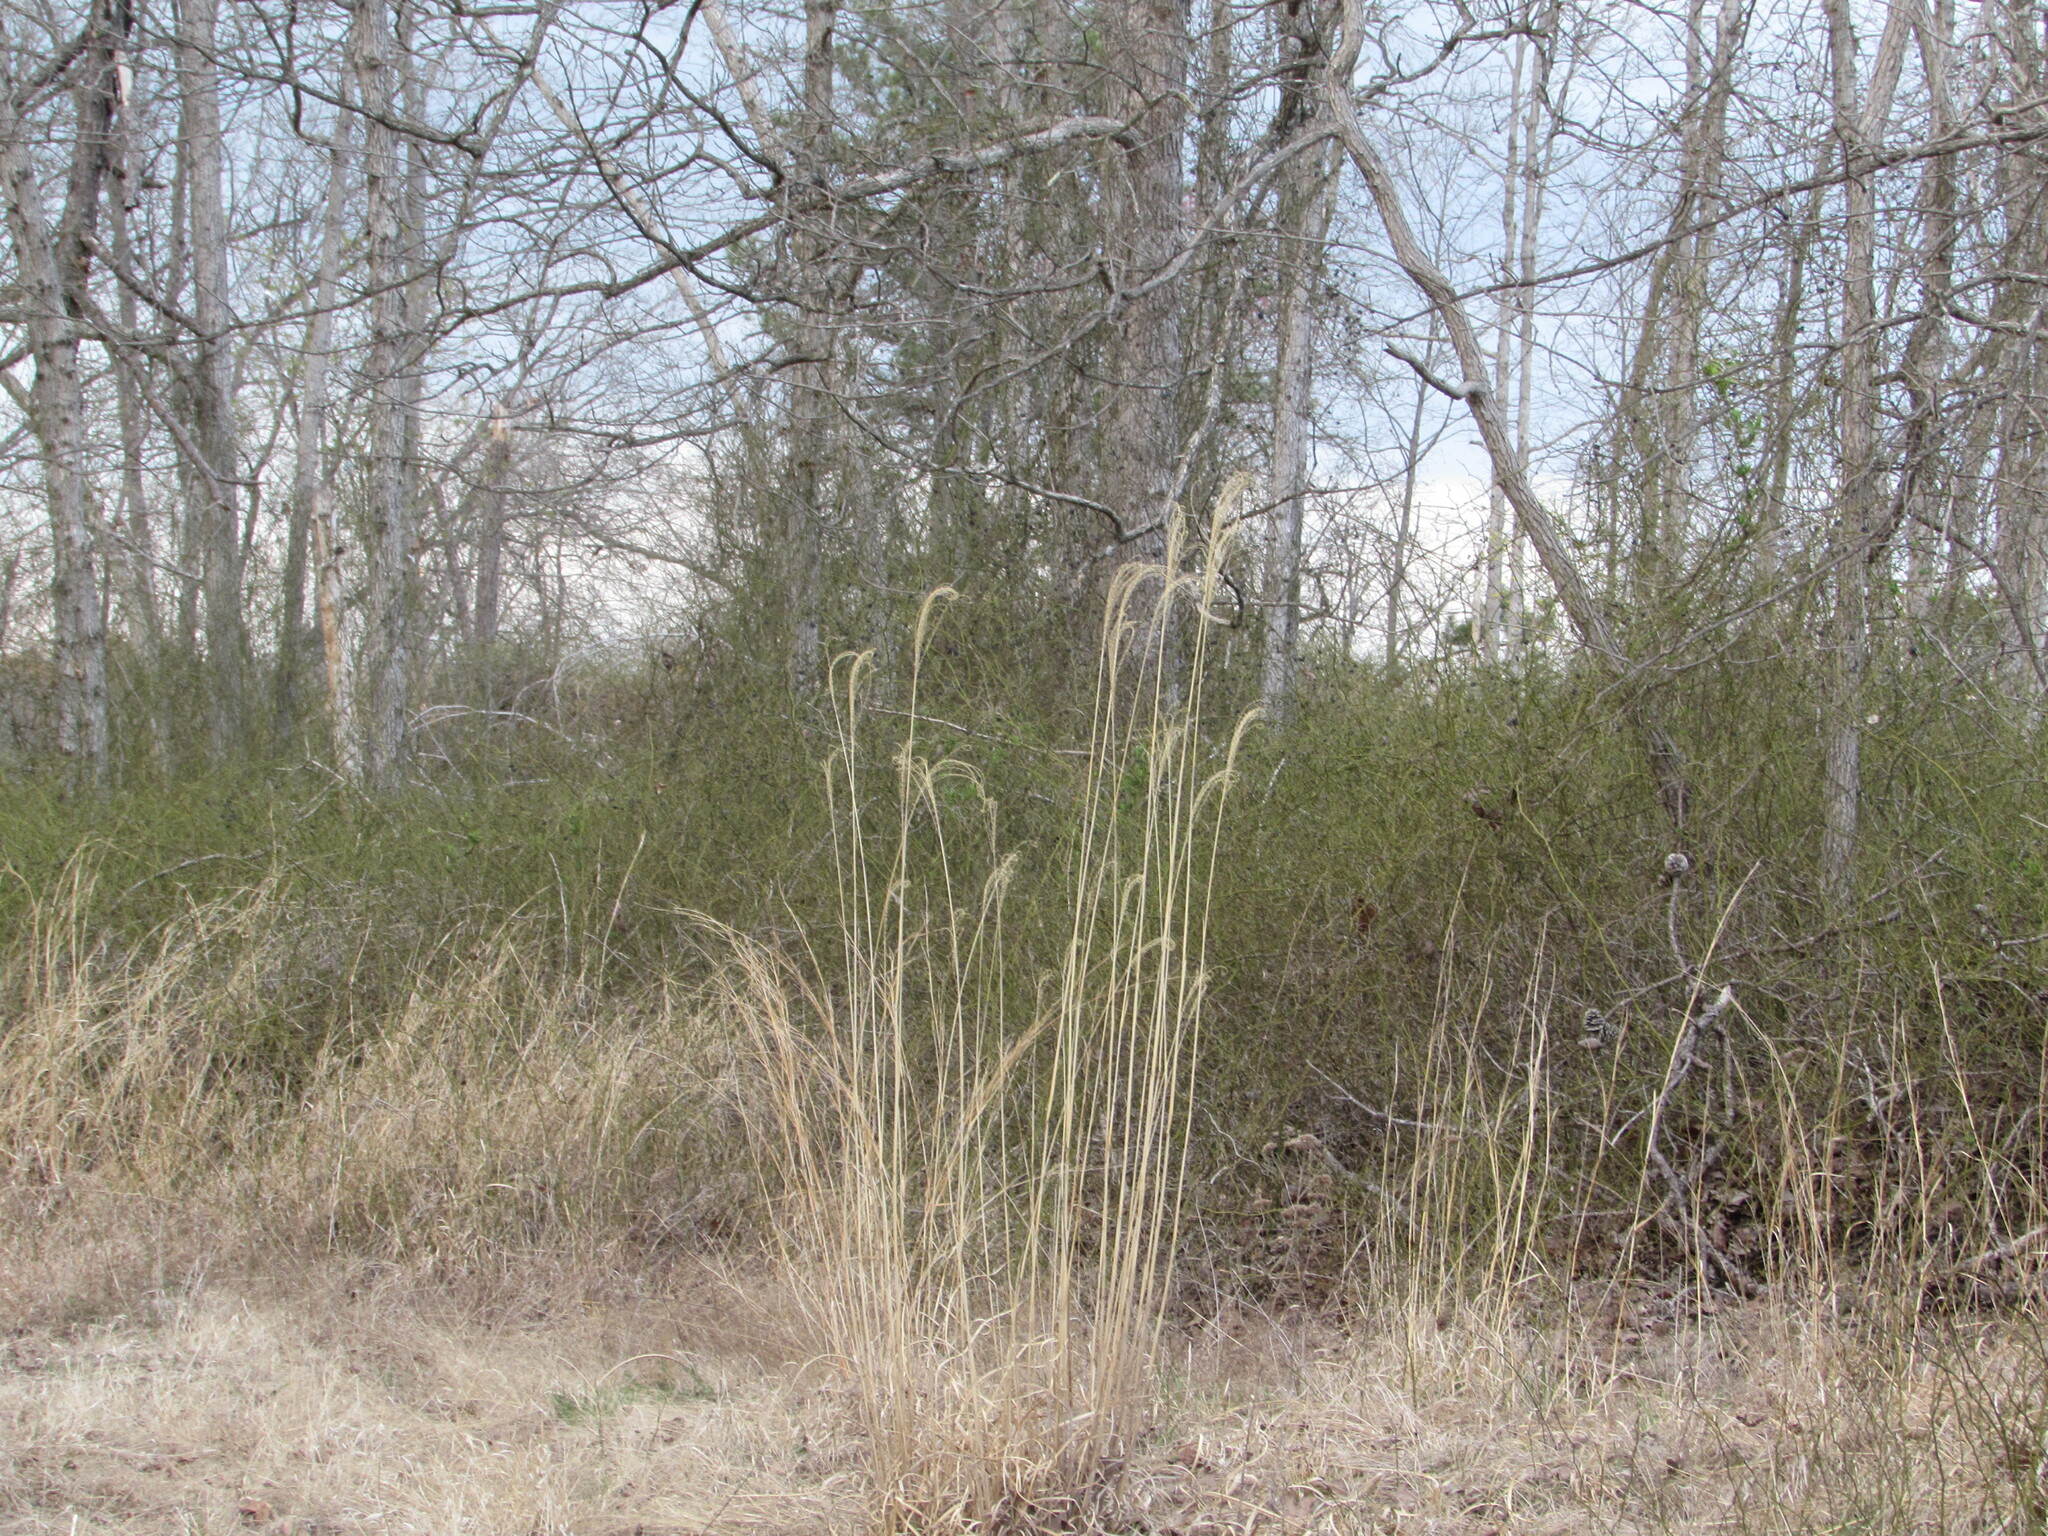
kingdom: Plantae
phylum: Tracheophyta
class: Liliopsida
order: Poales
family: Poaceae
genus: Miscanthus
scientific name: Miscanthus sinensis
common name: Chinese silvergrass
